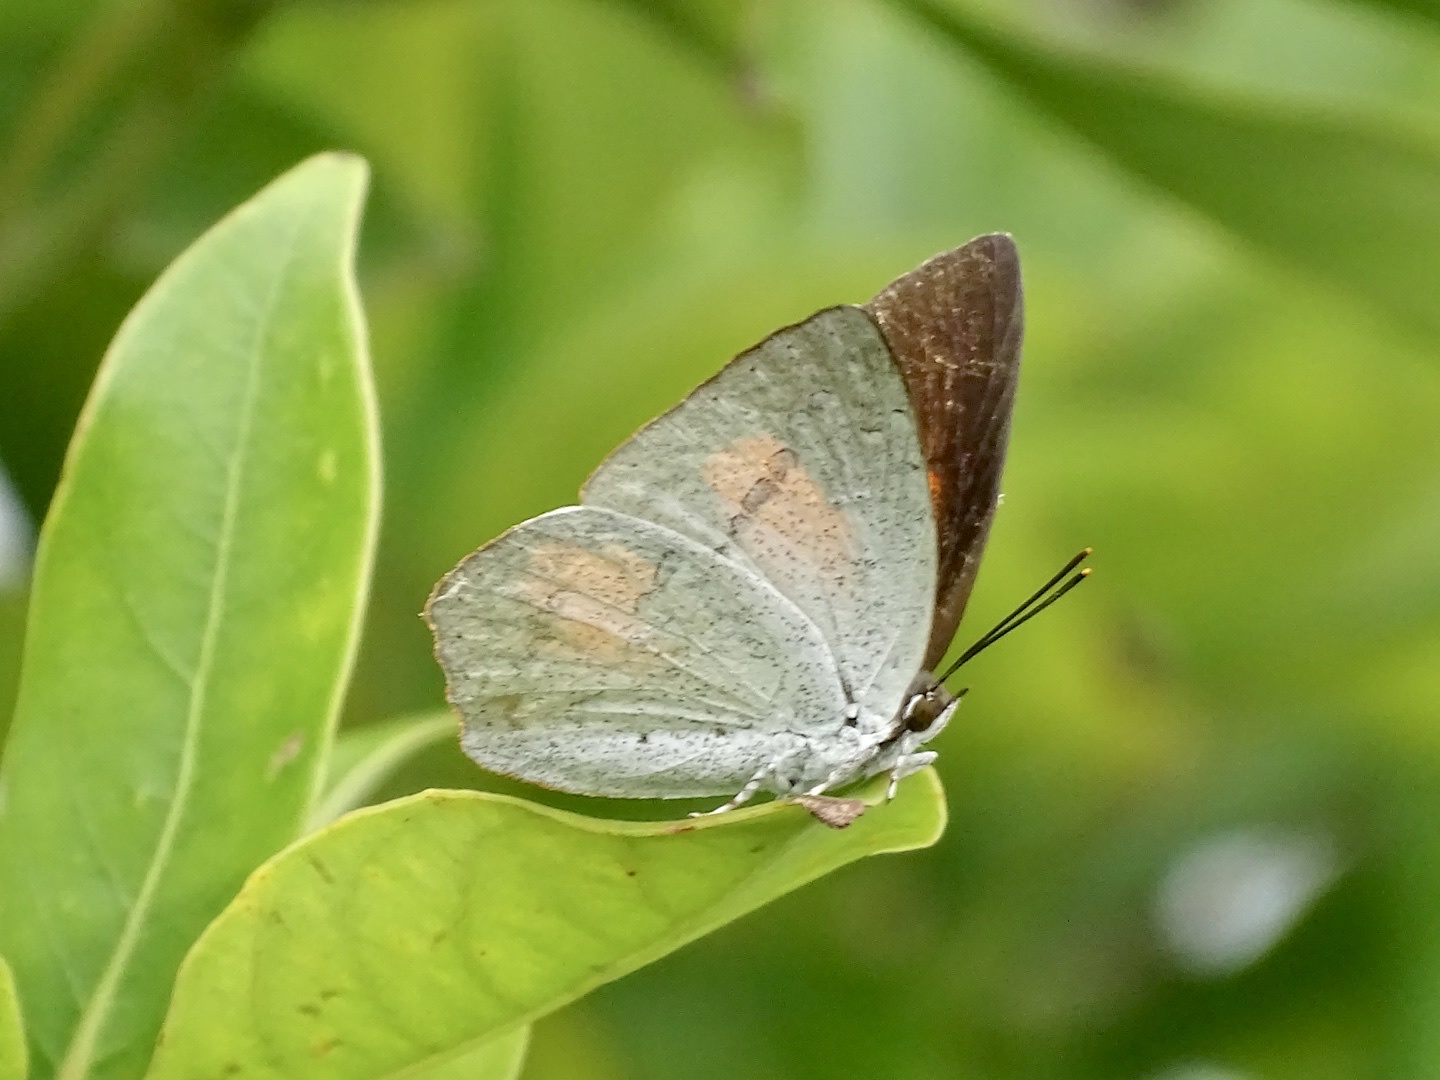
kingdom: Animalia
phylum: Arthropoda
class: Insecta
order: Lepidoptera
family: Lycaenidae
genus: Curetis
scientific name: Curetis acuta
